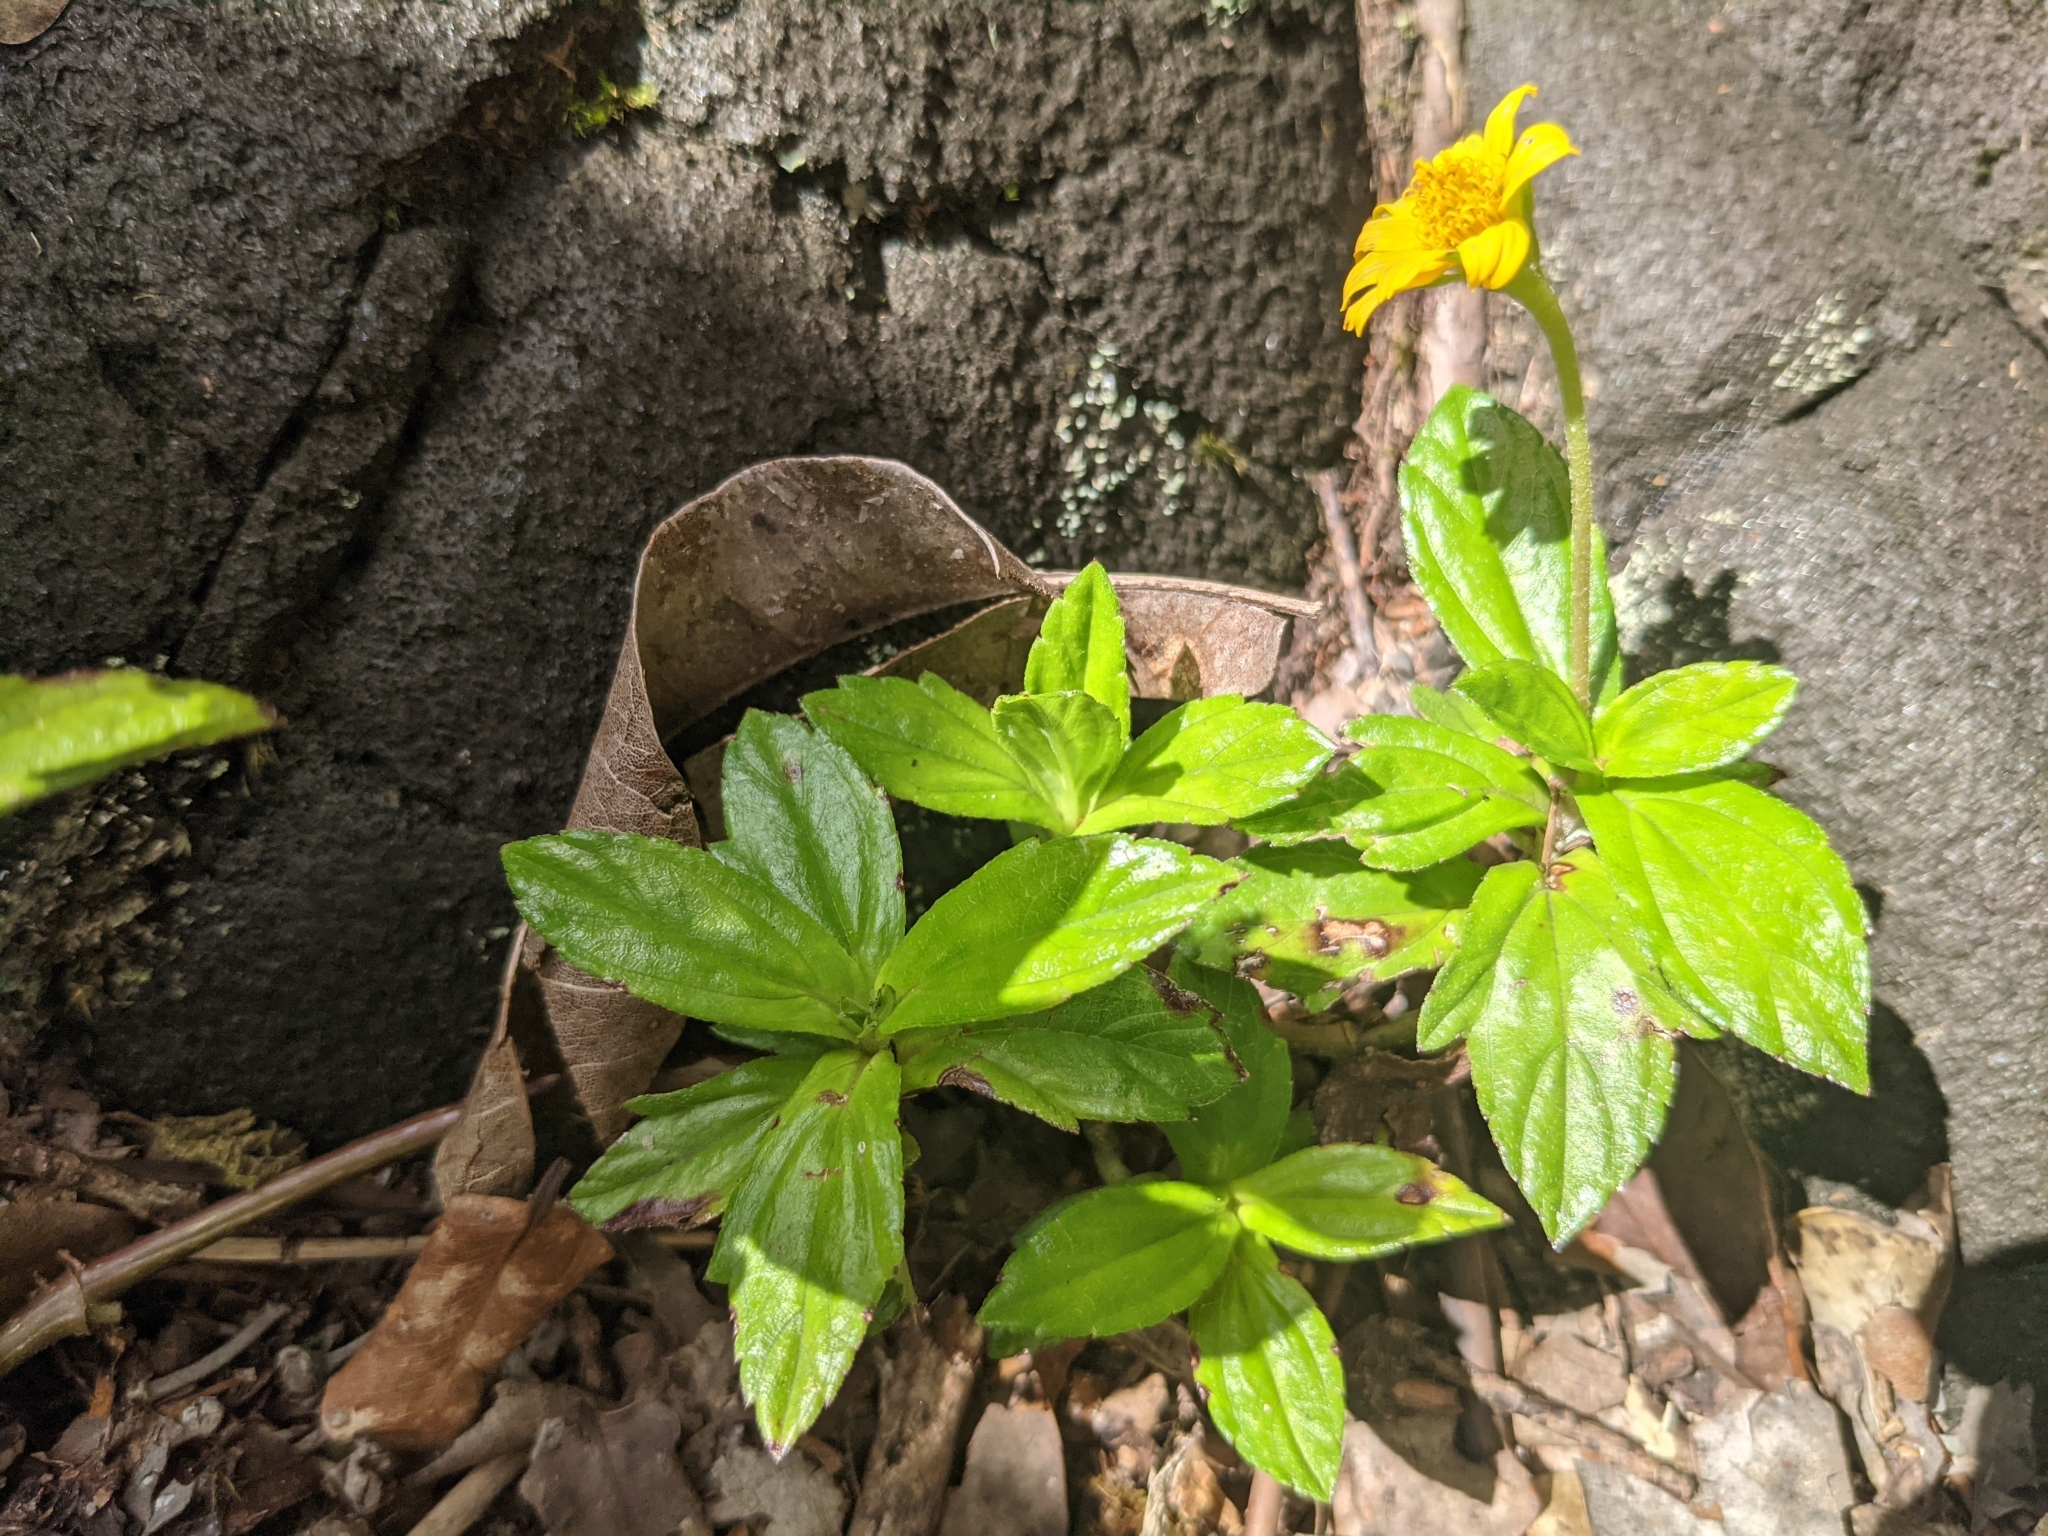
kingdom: Plantae
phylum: Tracheophyta
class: Magnoliopsida
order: Asterales
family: Asteraceae
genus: Sphagneticola
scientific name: Sphagneticola trilobata
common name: Bay biscayne creeping-oxeye
